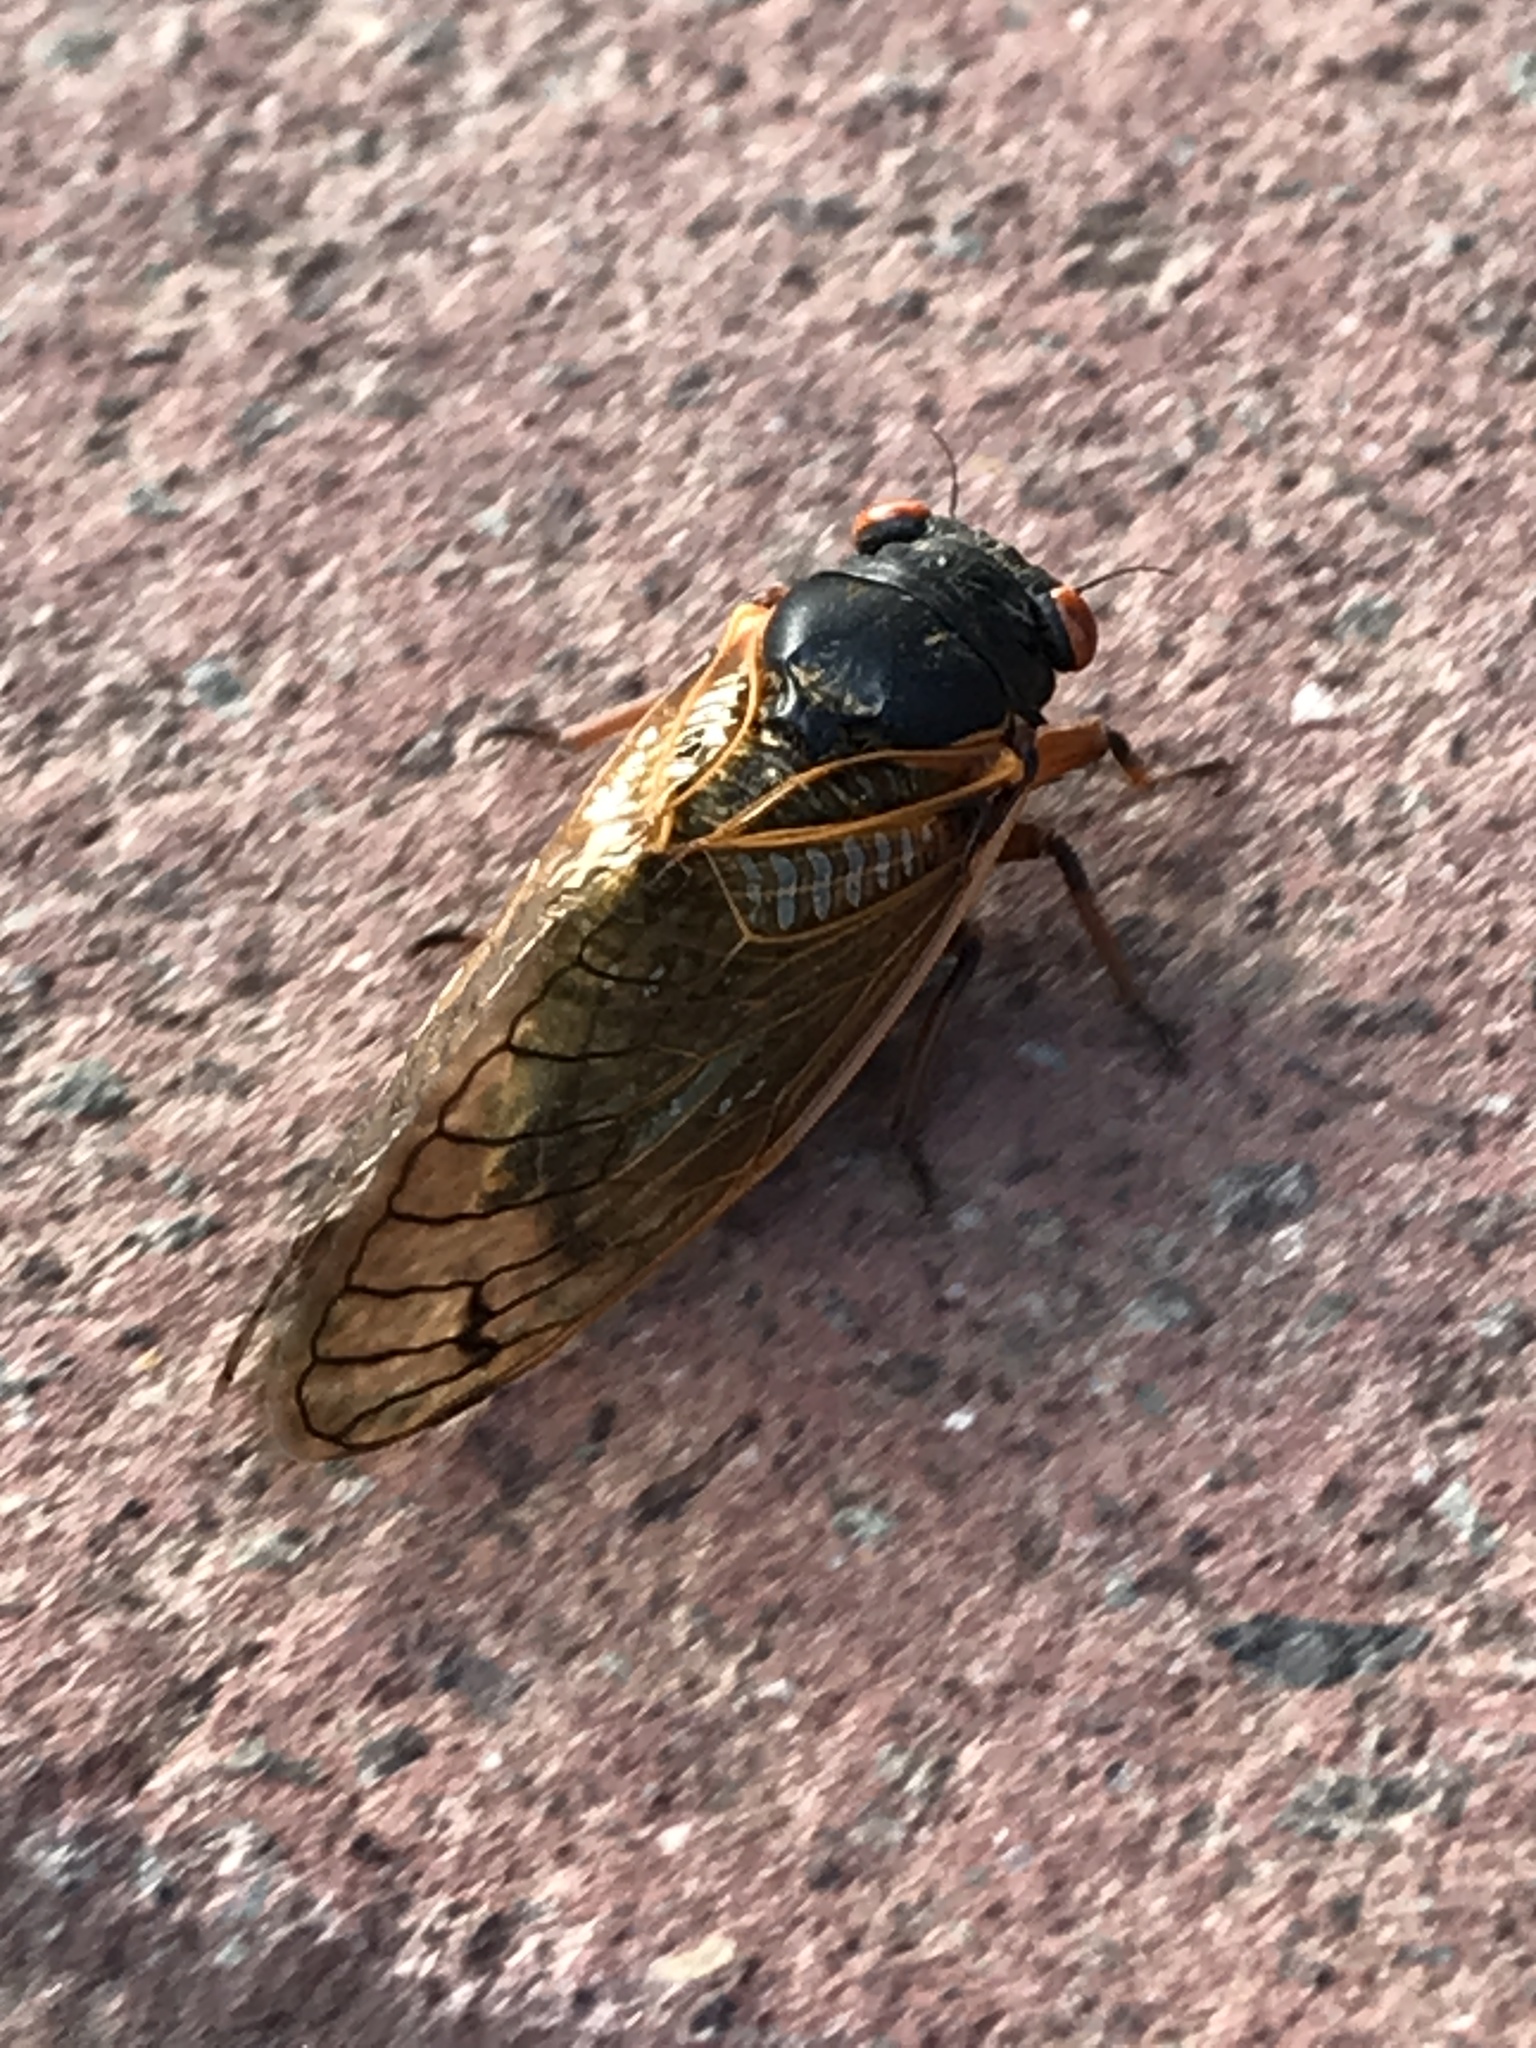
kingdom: Animalia
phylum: Arthropoda
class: Insecta
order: Hemiptera
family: Cicadidae
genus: Magicicada
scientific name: Magicicada
